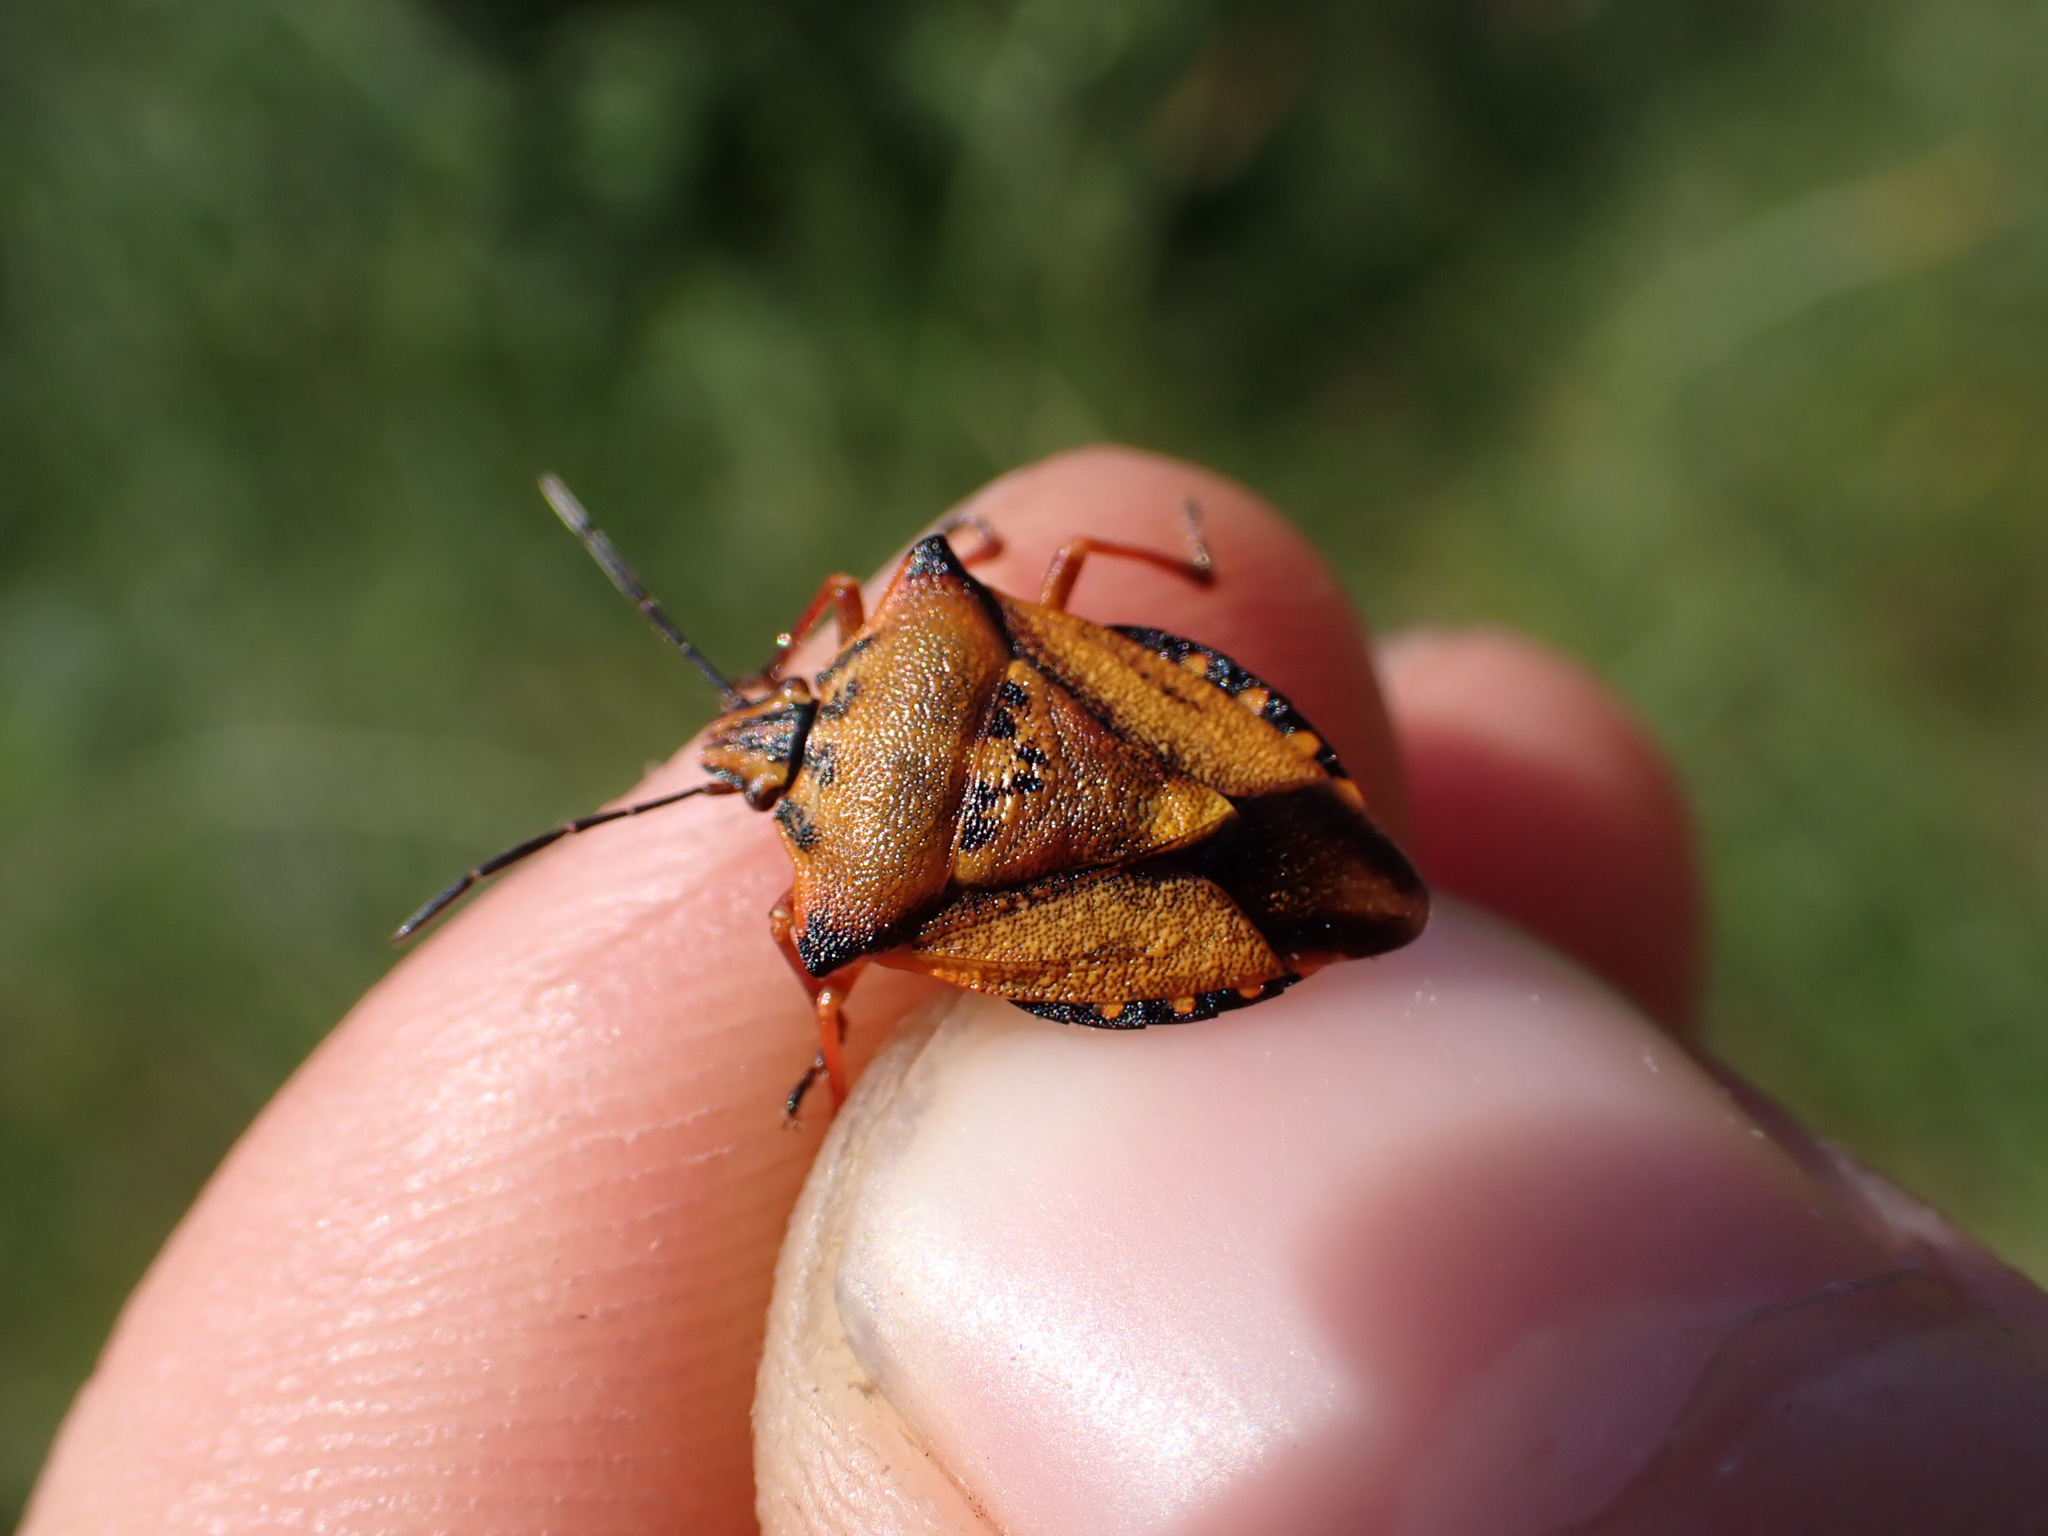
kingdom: Animalia
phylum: Arthropoda
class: Insecta
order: Hemiptera
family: Pentatomidae
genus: Carpocoris
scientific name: Carpocoris mediterraneus
